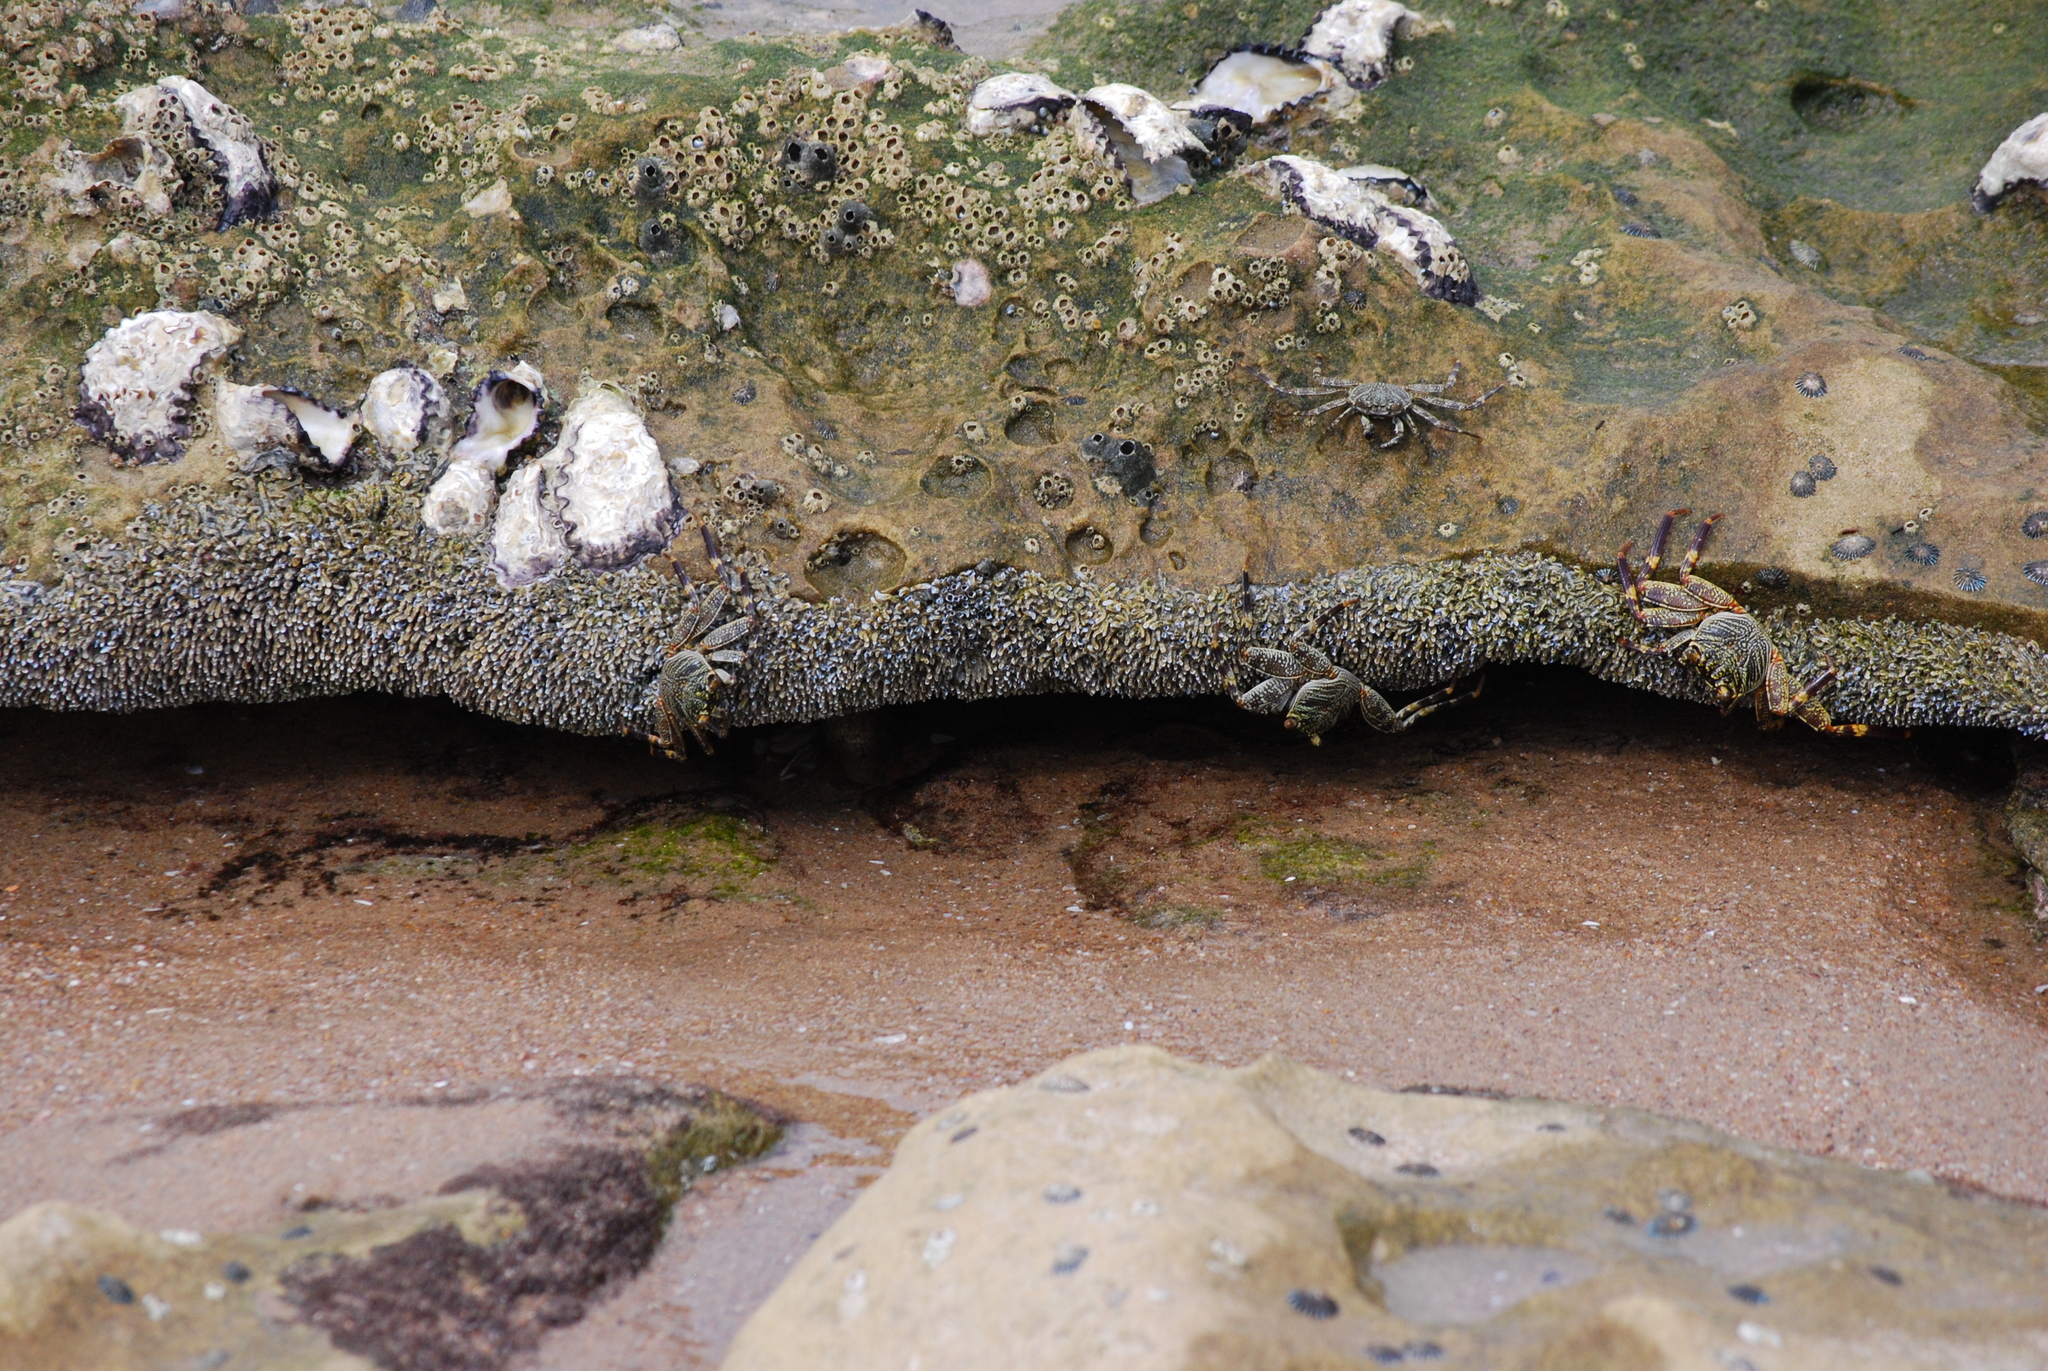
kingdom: Animalia
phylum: Arthropoda
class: Malacostraca
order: Decapoda
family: Grapsidae
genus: Grapsus
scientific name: Grapsus tenuicrustatus
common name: Natal lightfoot crab
